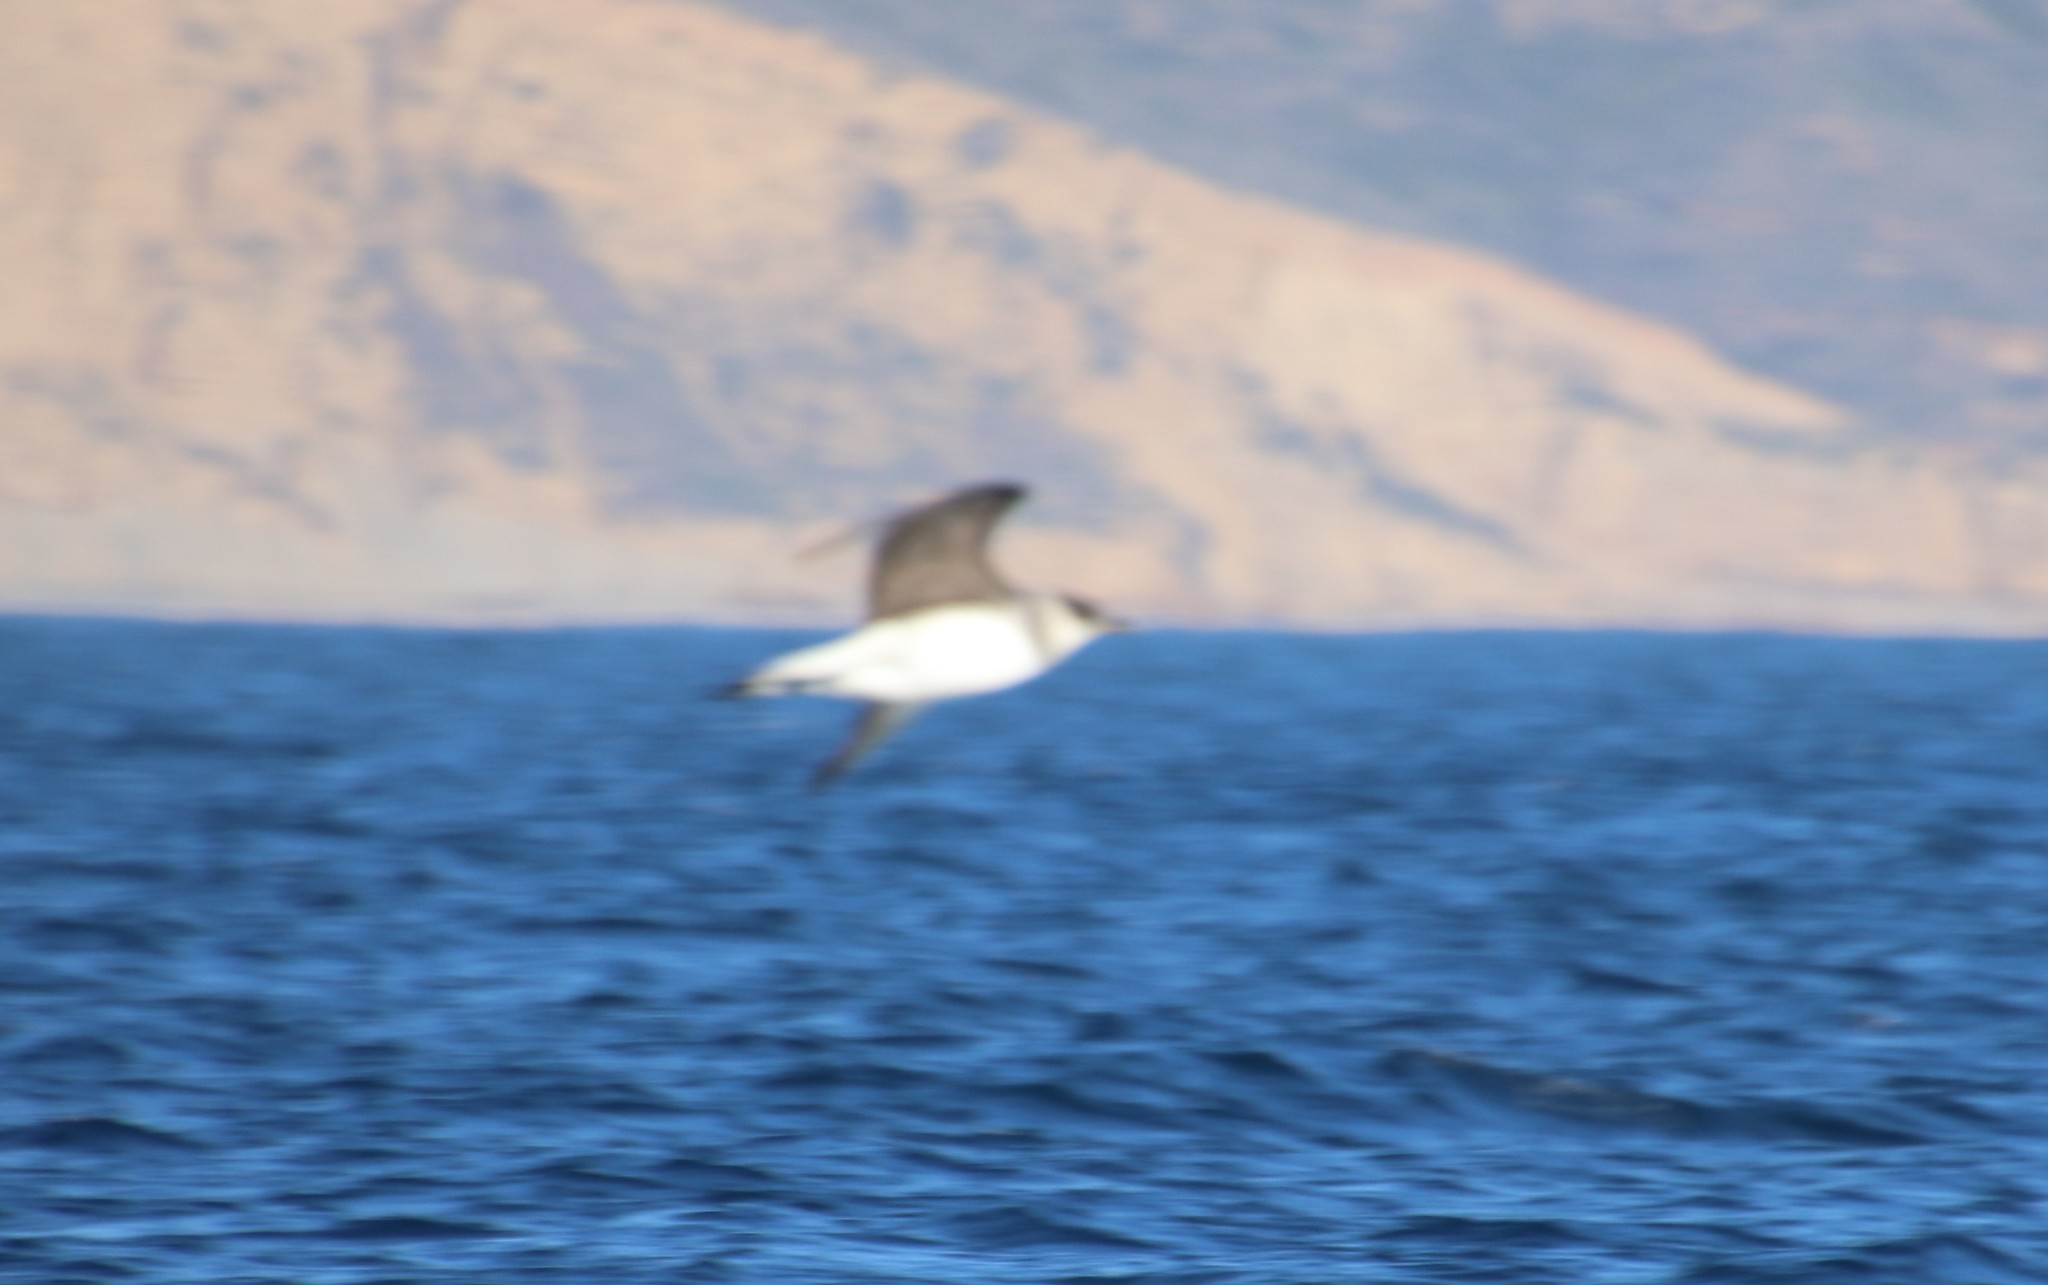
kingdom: Animalia
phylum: Chordata
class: Aves
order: Charadriiformes
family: Stercorariidae
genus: Stercorarius
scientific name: Stercorarius parasiticus
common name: Parasitic jaeger
